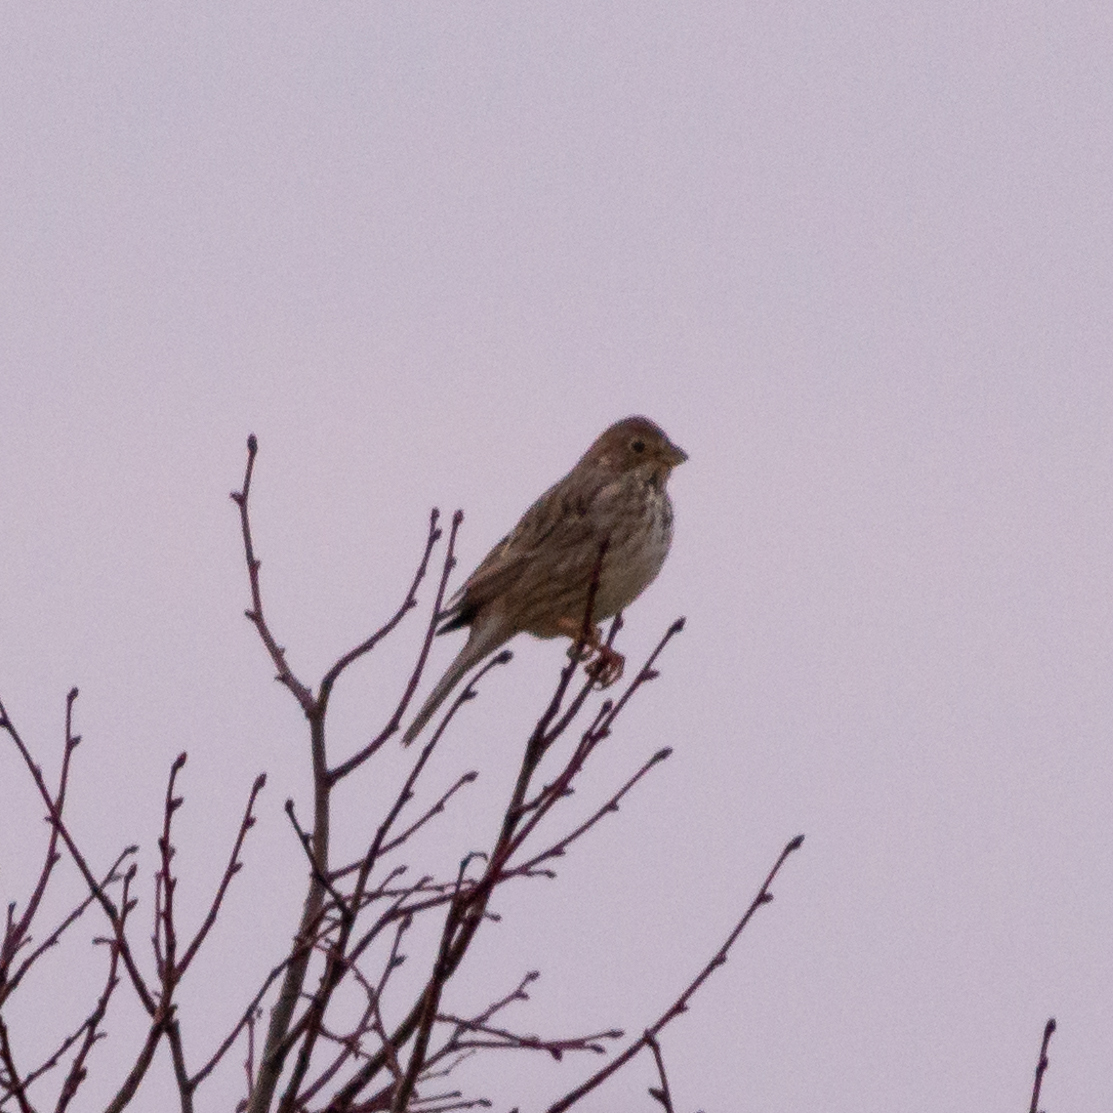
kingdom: Animalia
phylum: Chordata
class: Aves
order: Passeriformes
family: Emberizidae
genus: Emberiza
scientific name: Emberiza calandra
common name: Corn bunting
